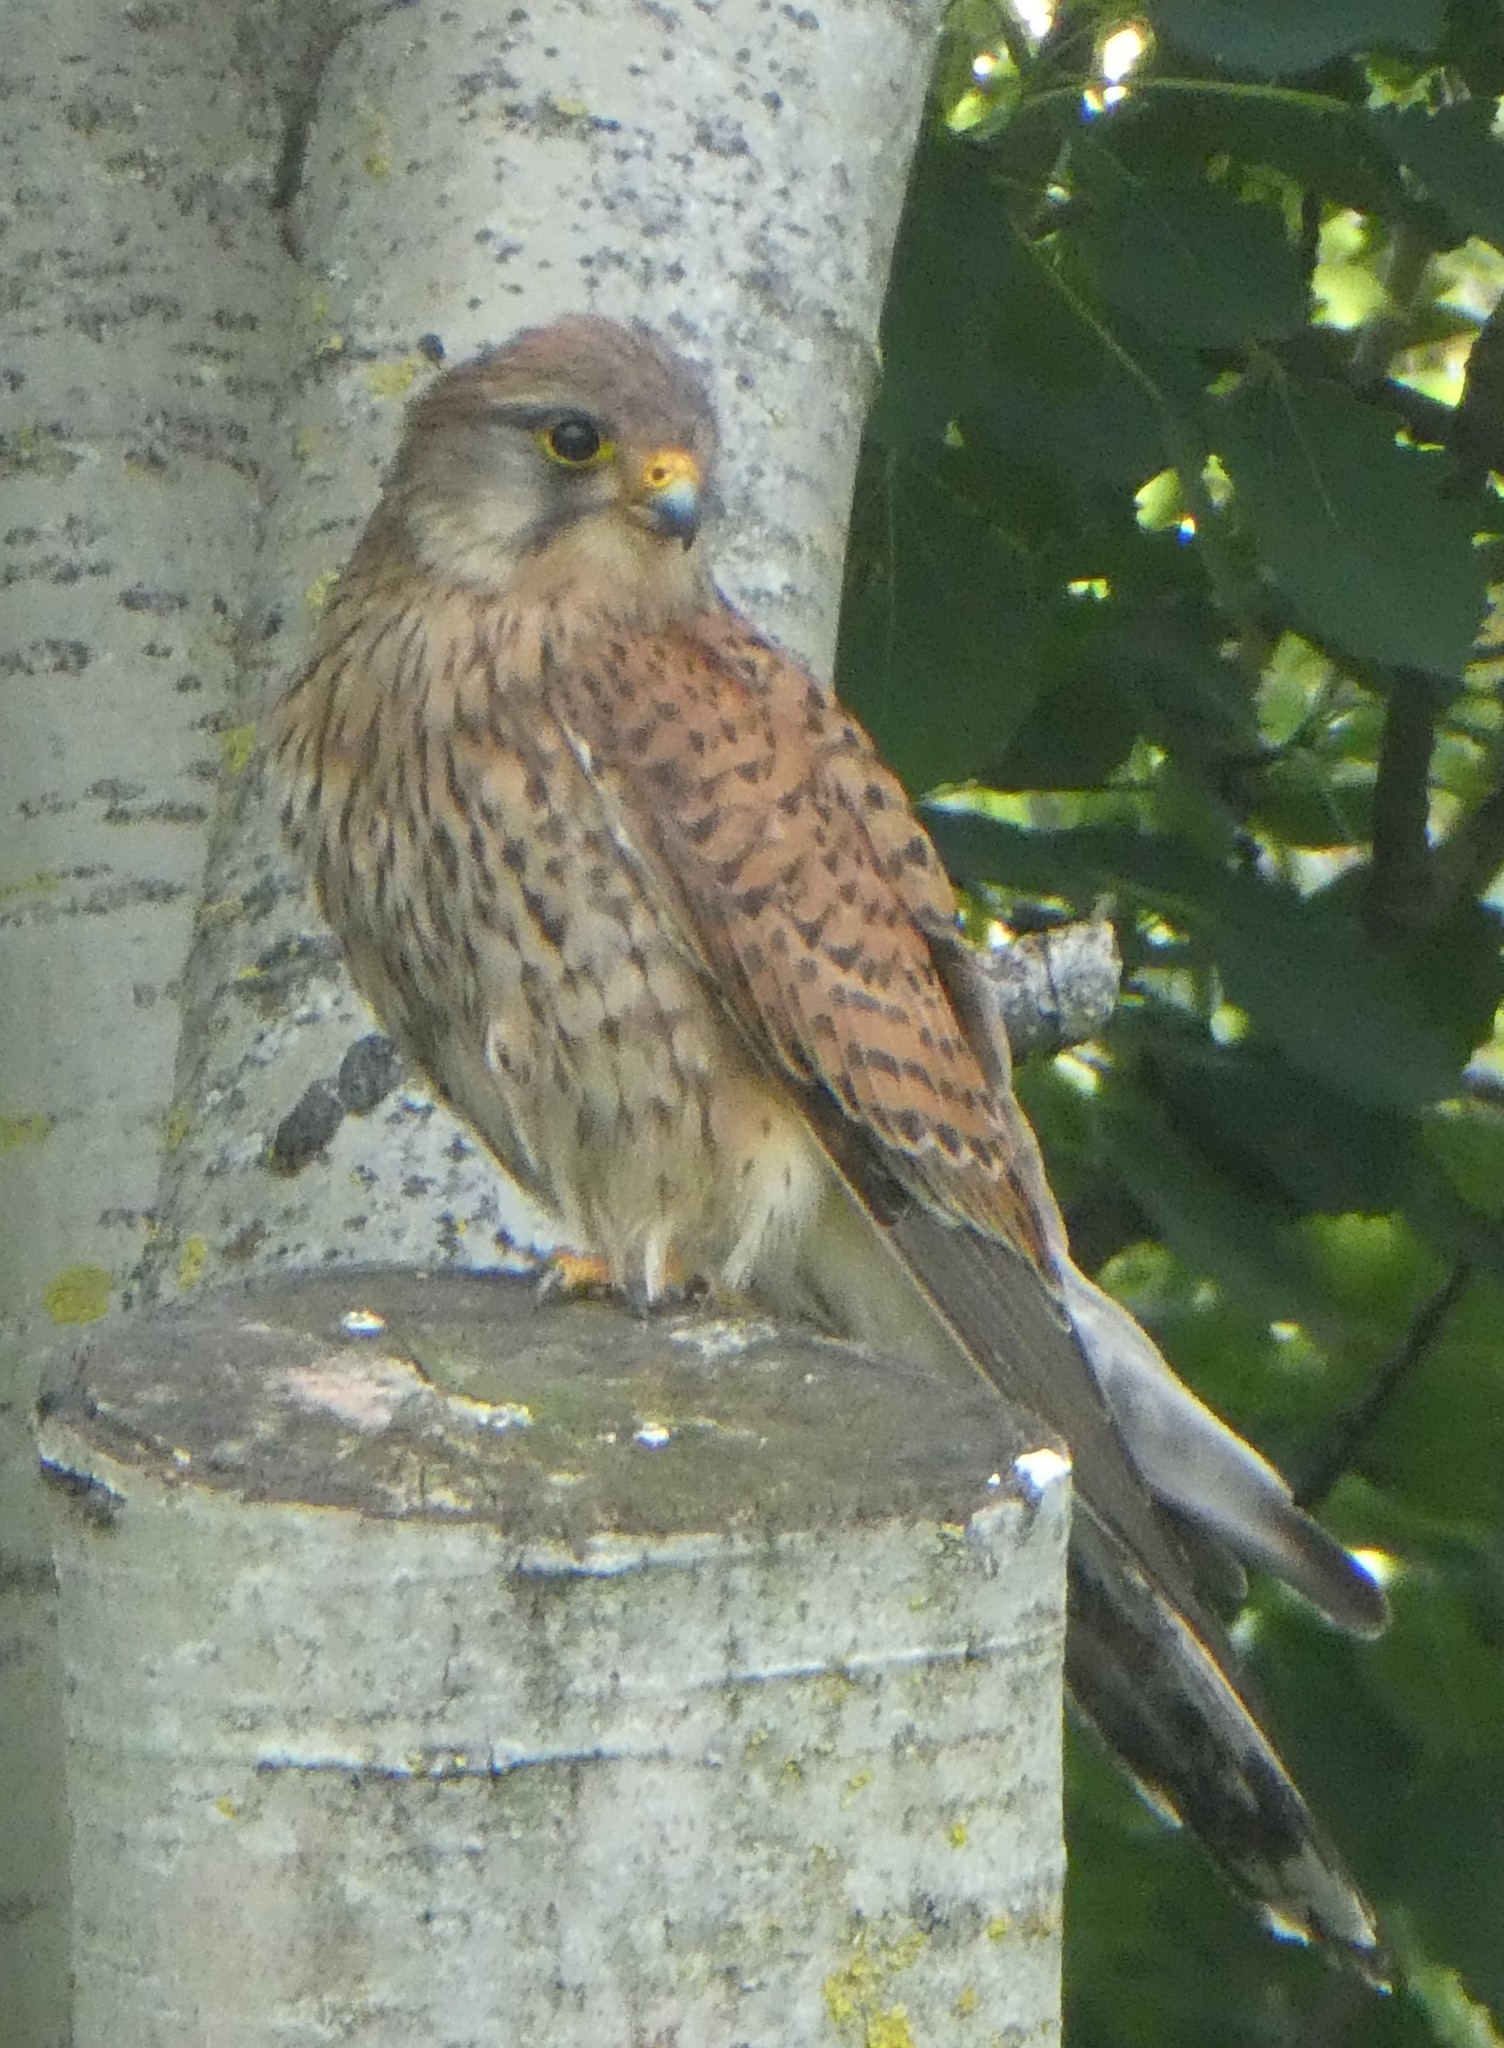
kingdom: Animalia
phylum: Chordata
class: Aves
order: Falconiformes
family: Falconidae
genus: Falco
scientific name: Falco tinnunculus
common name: Common kestrel
